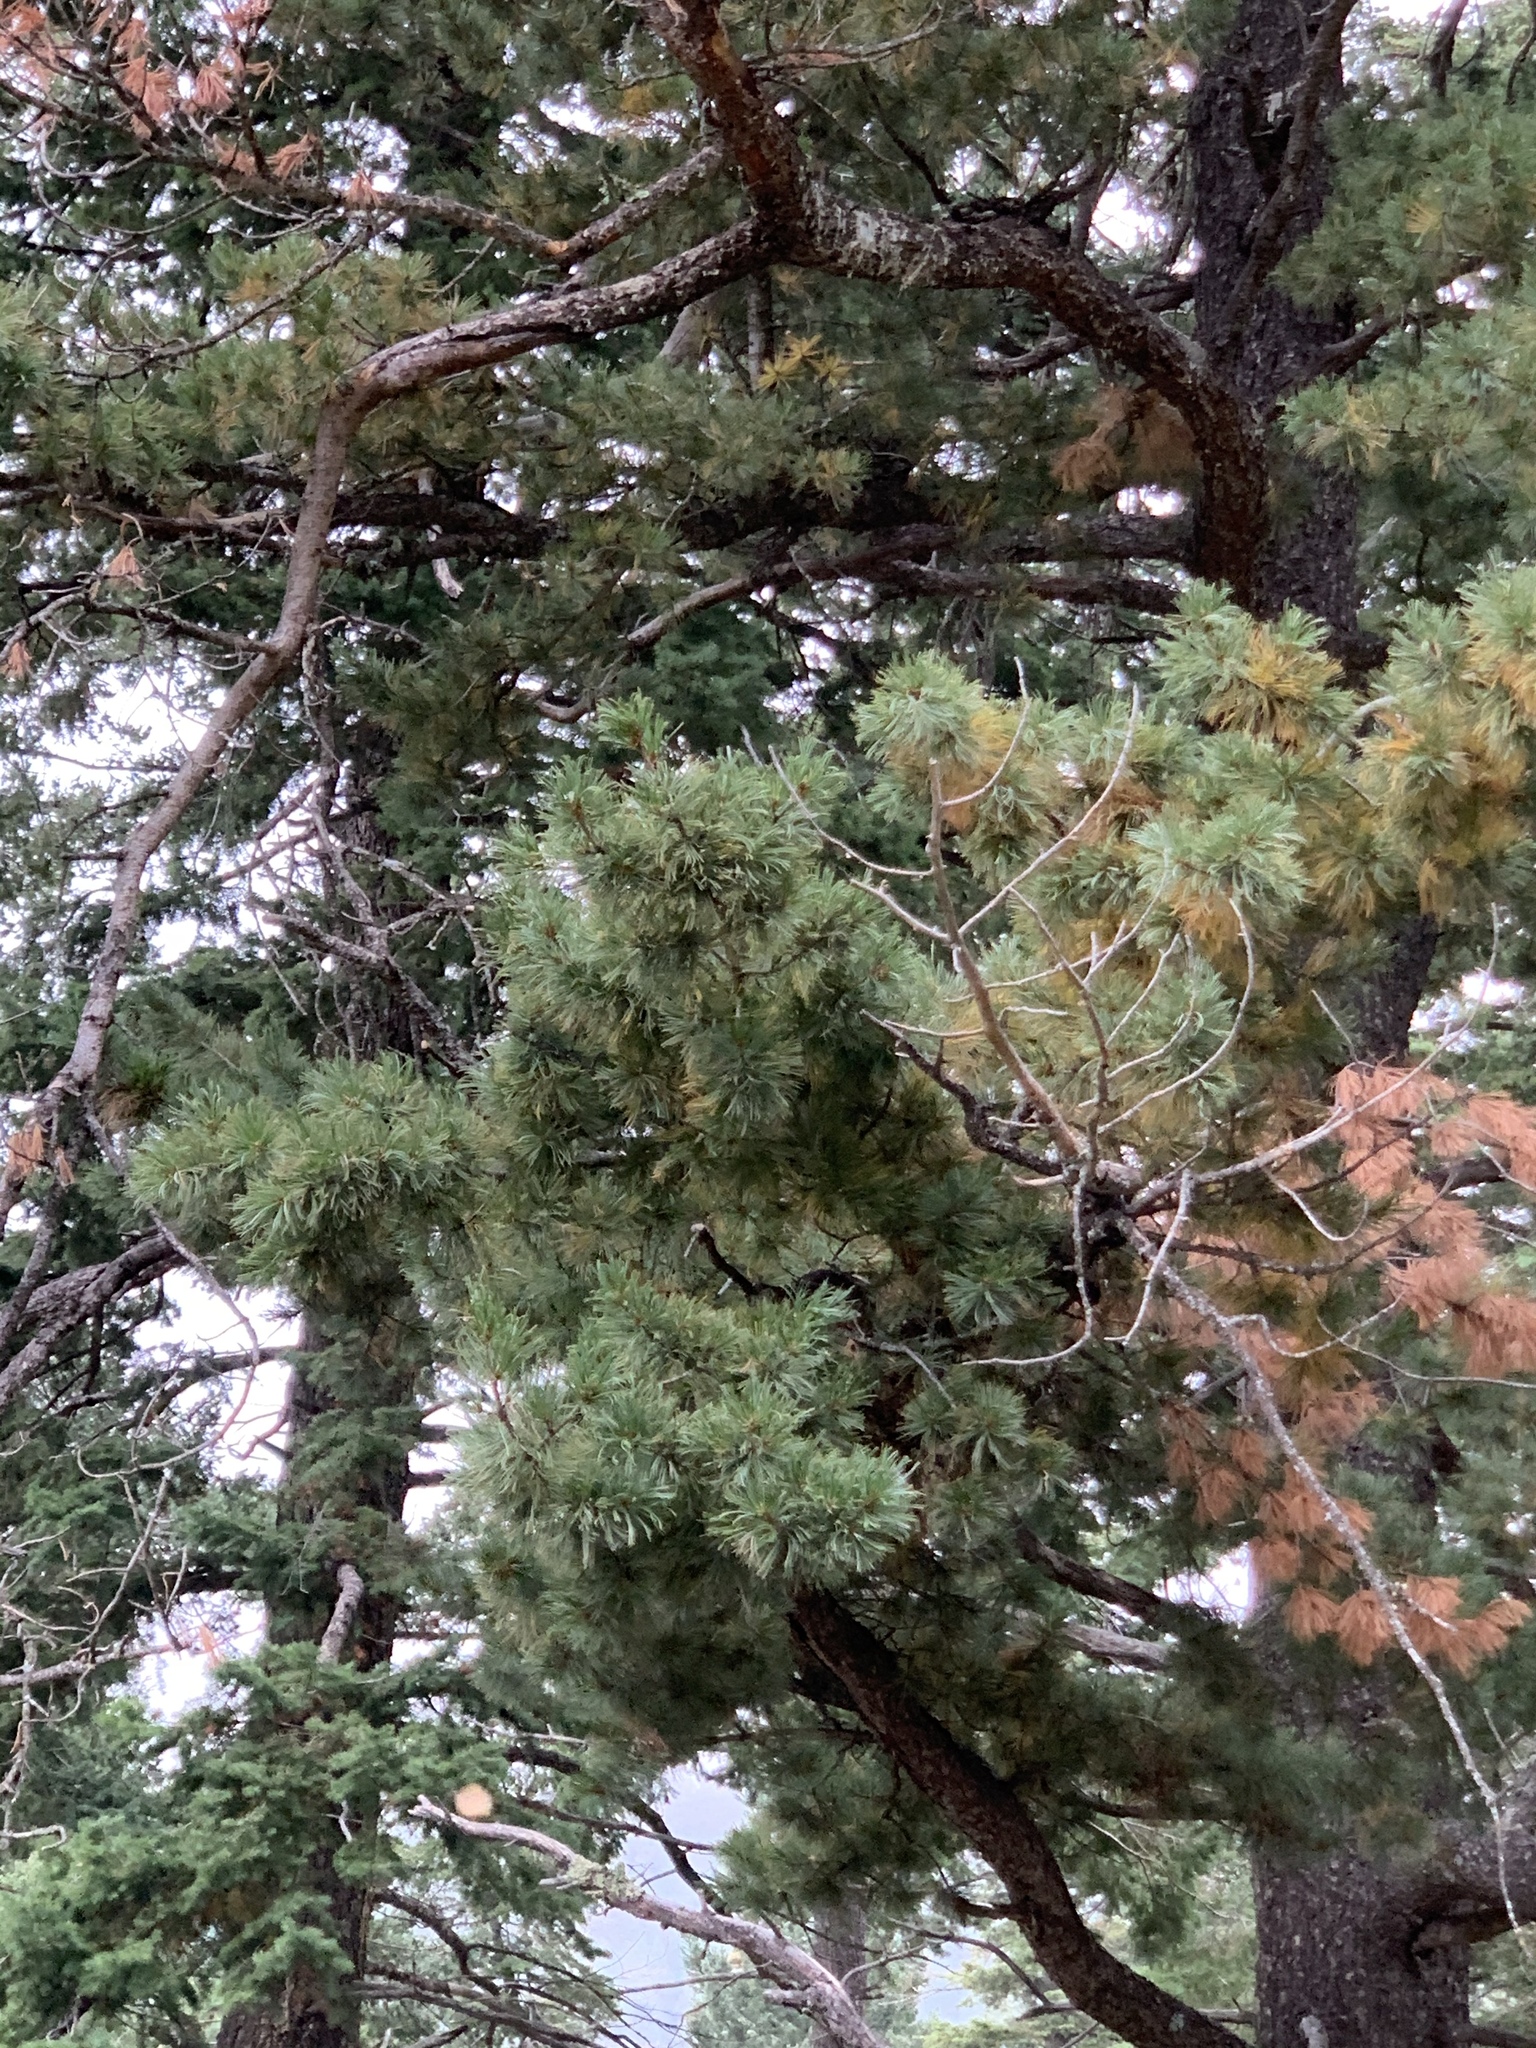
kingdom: Plantae
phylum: Tracheophyta
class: Pinopsida
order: Pinales
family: Pinaceae
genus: Pinus
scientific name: Pinus strobiformis
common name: Southwestern white pine
